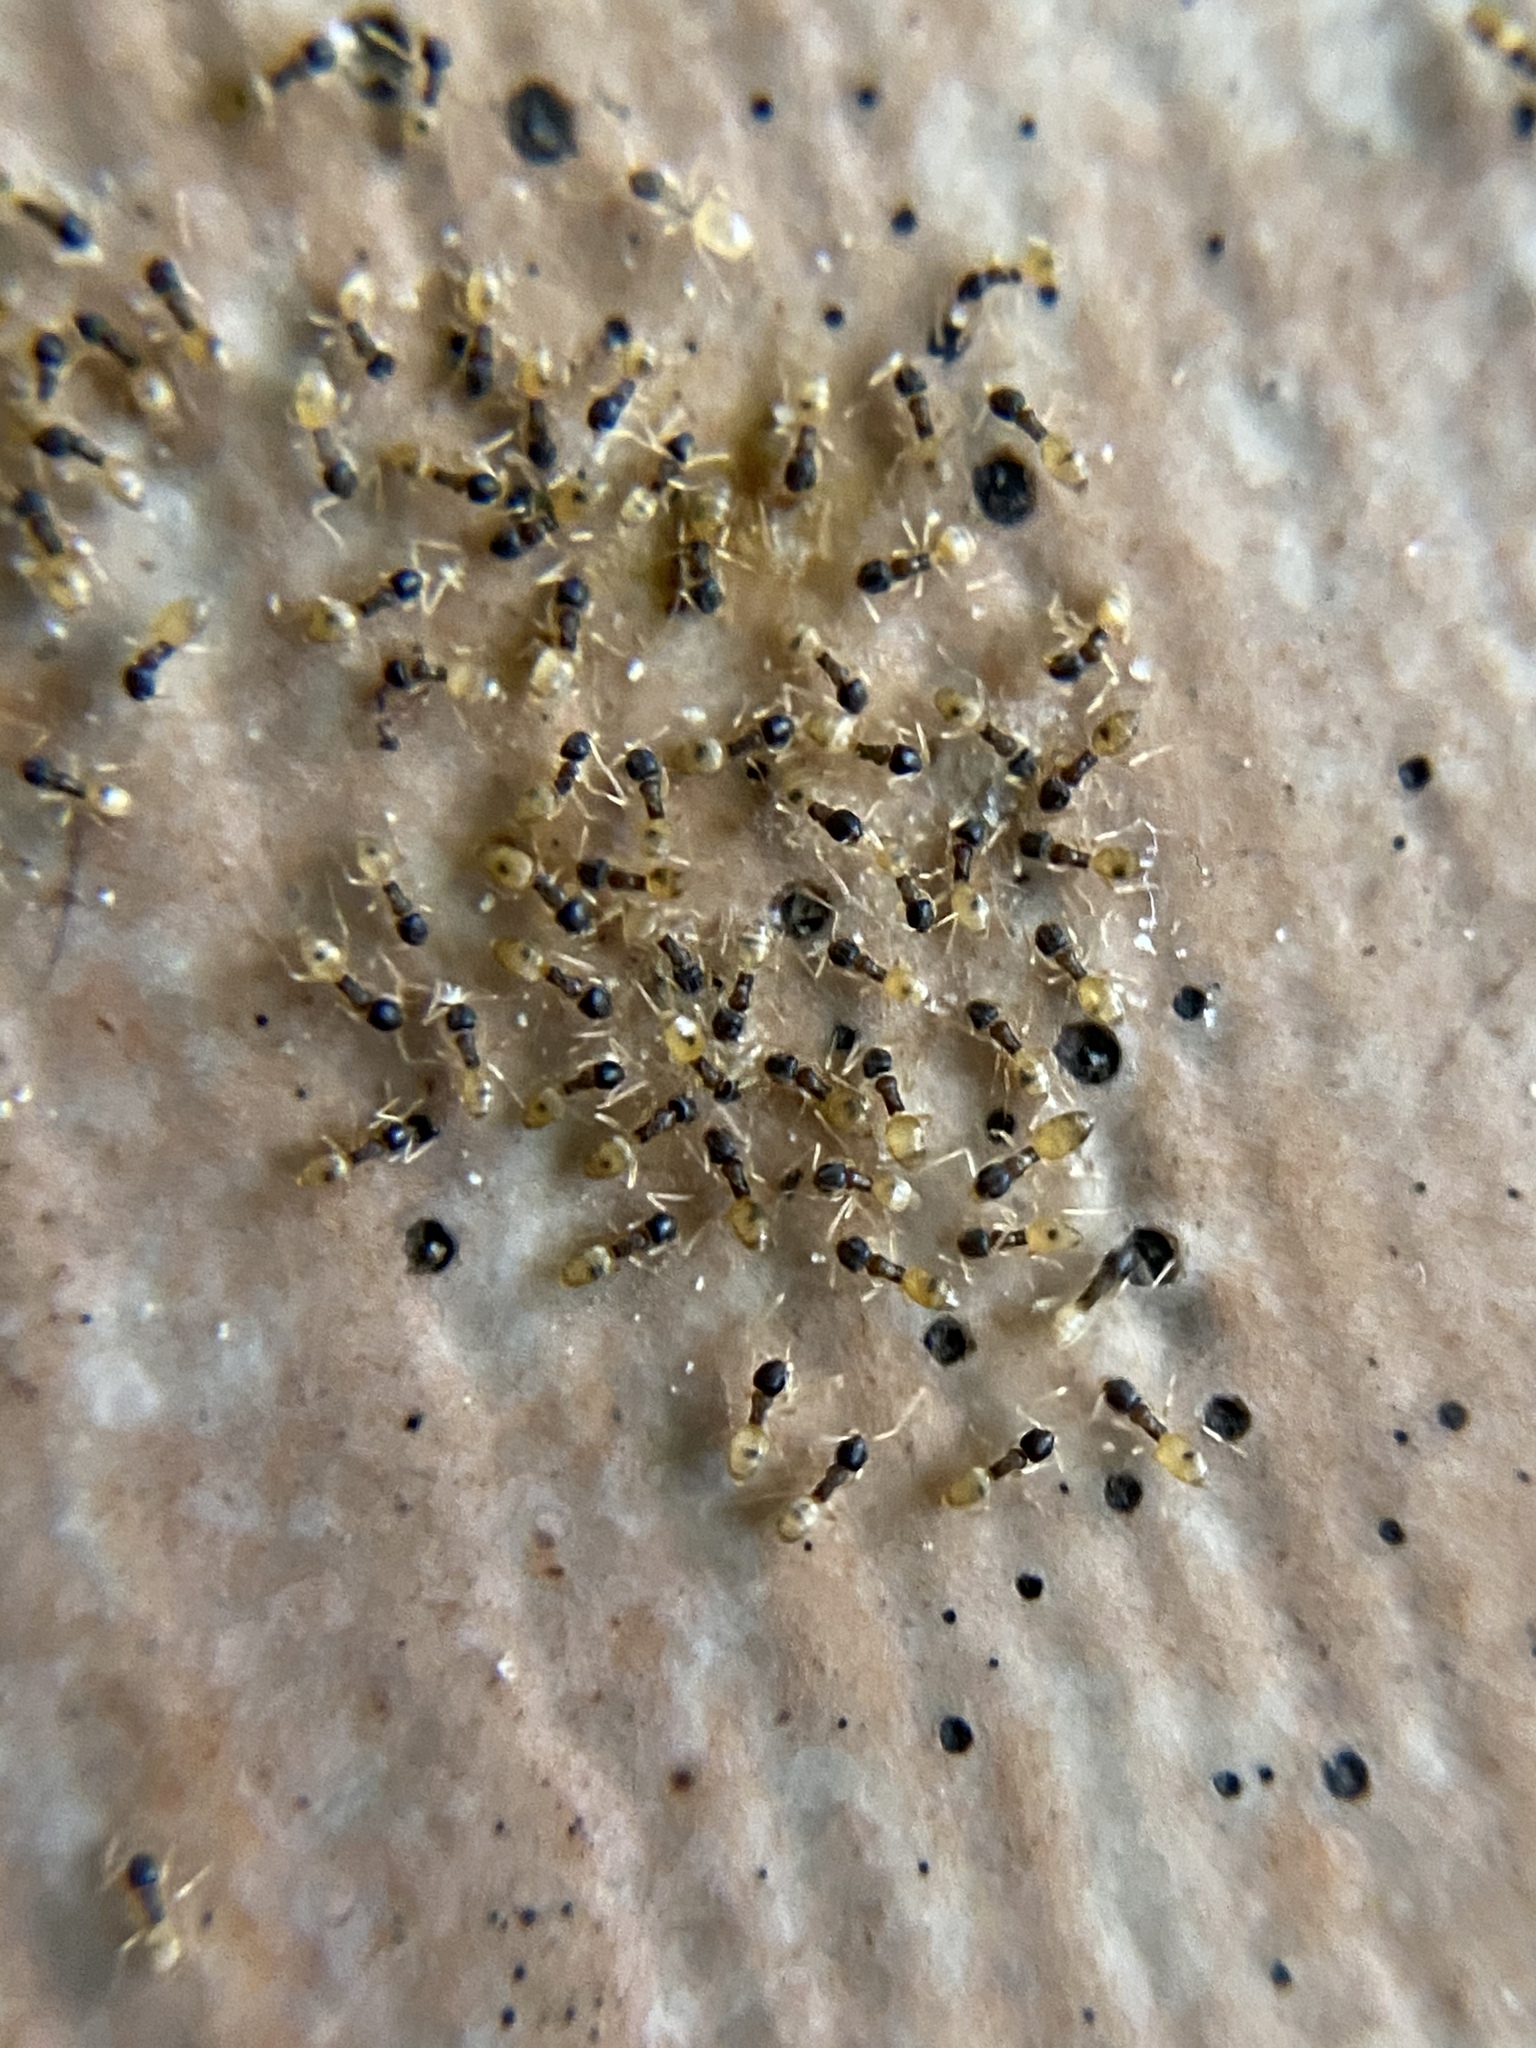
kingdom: Animalia
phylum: Arthropoda
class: Insecta
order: Hymenoptera
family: Formicidae
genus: Tapinoma
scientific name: Tapinoma melanocephalum
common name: Ghost ant
